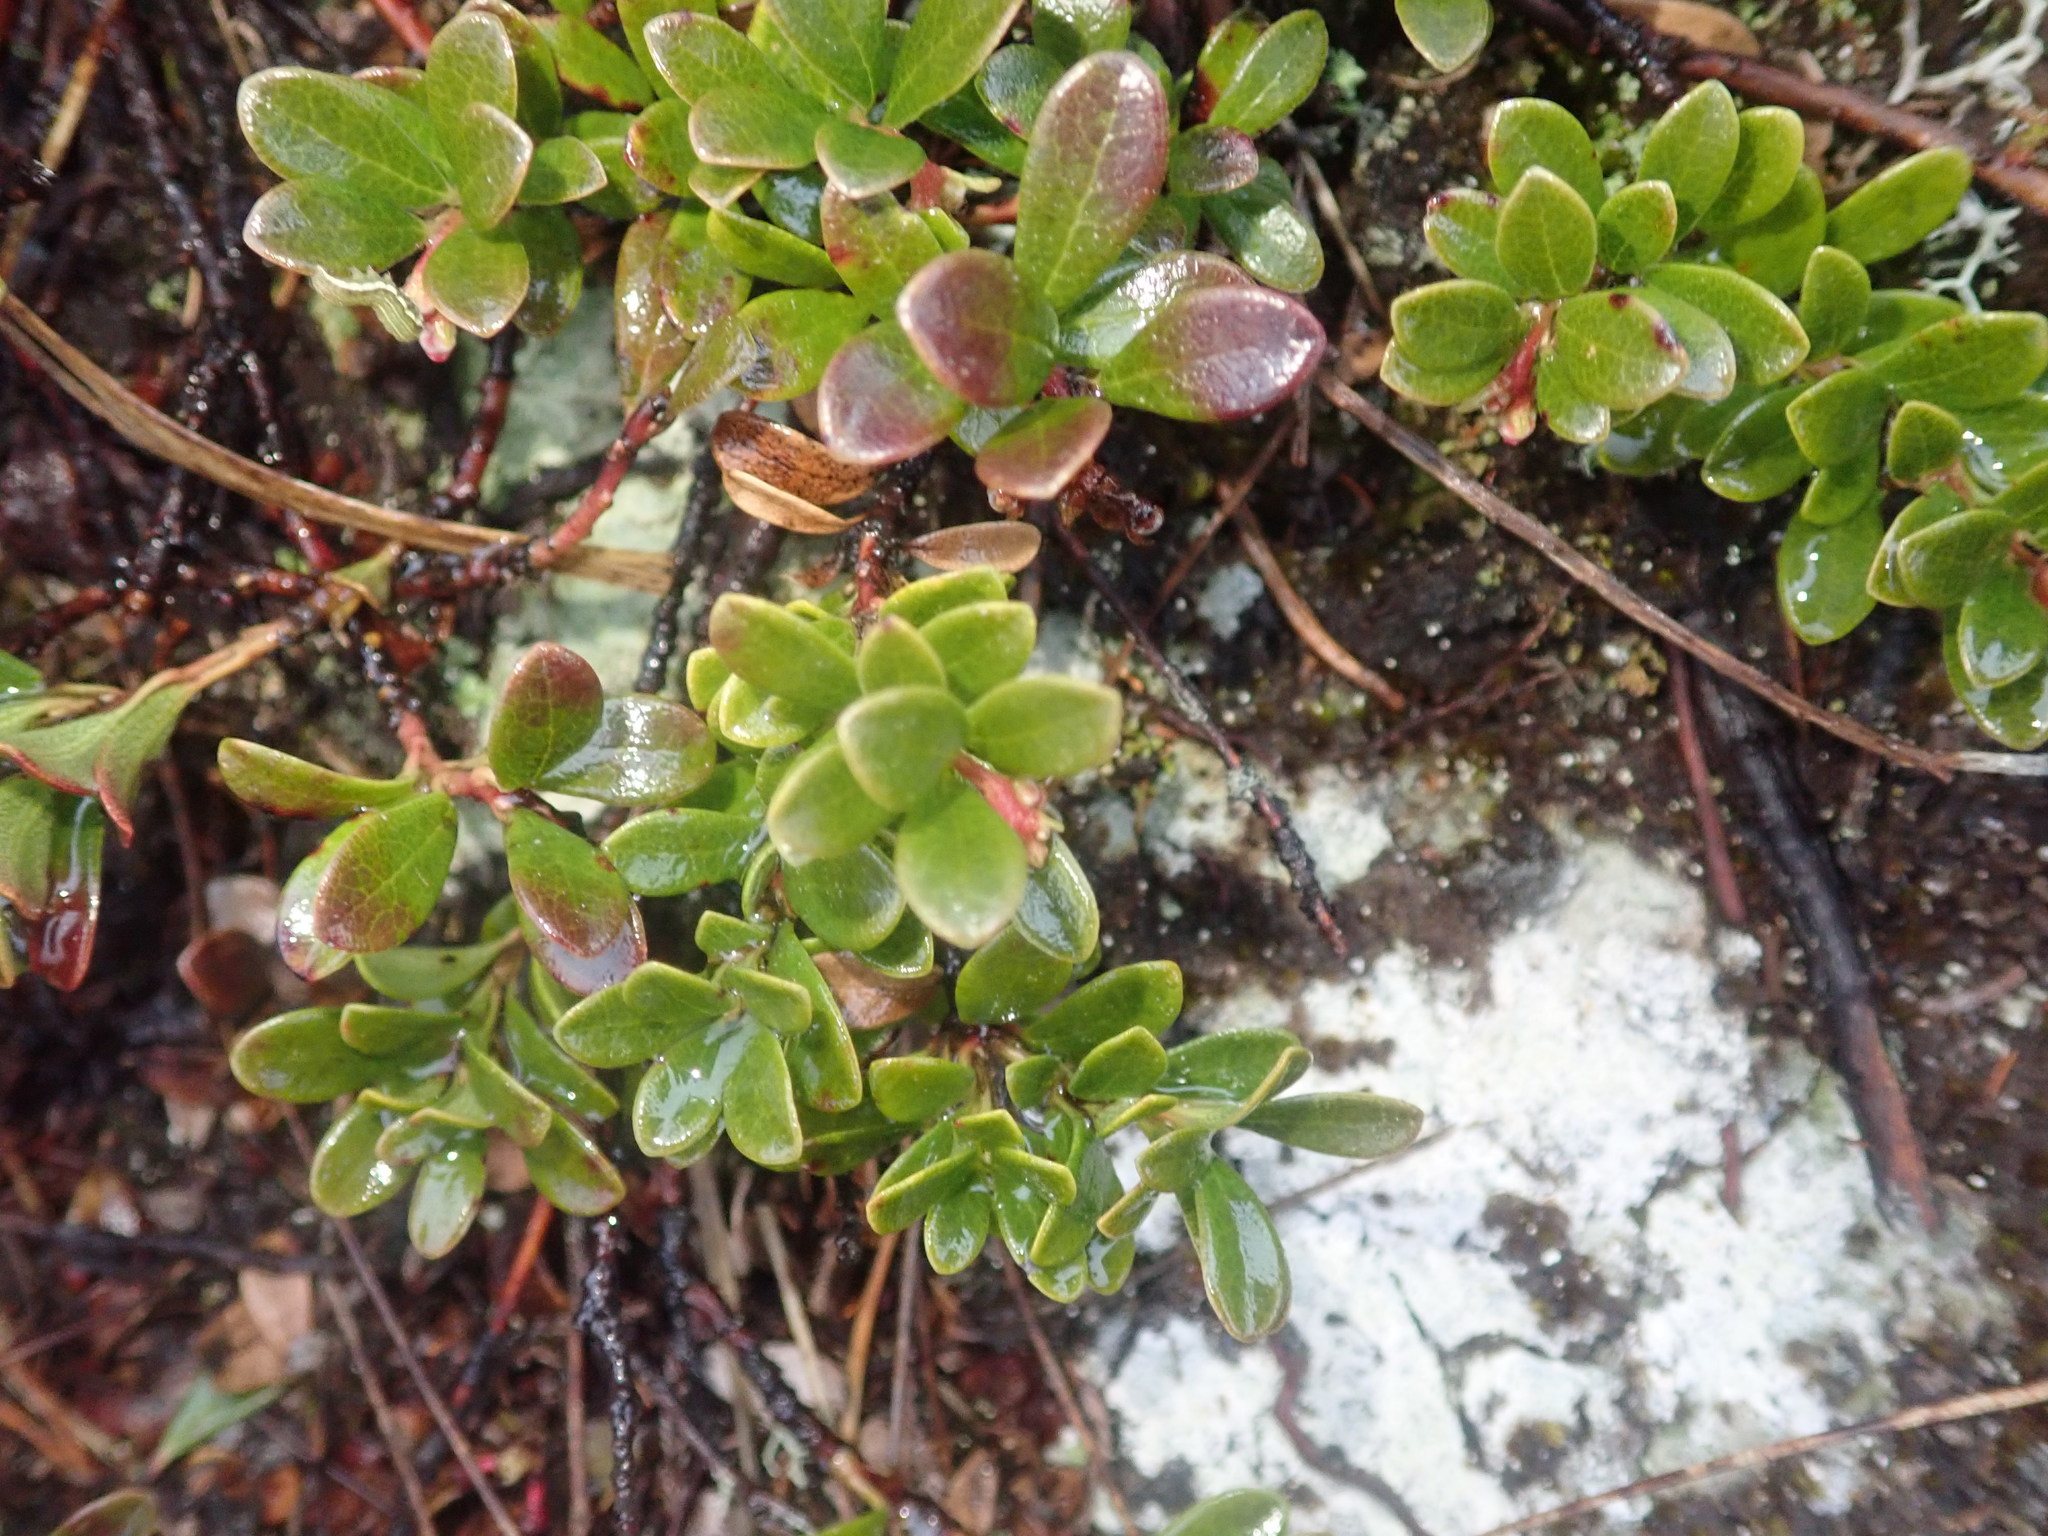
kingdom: Plantae
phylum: Tracheophyta
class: Magnoliopsida
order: Ericales
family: Ericaceae
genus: Arctostaphylos
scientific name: Arctostaphylos uva-ursi
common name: Bearberry
